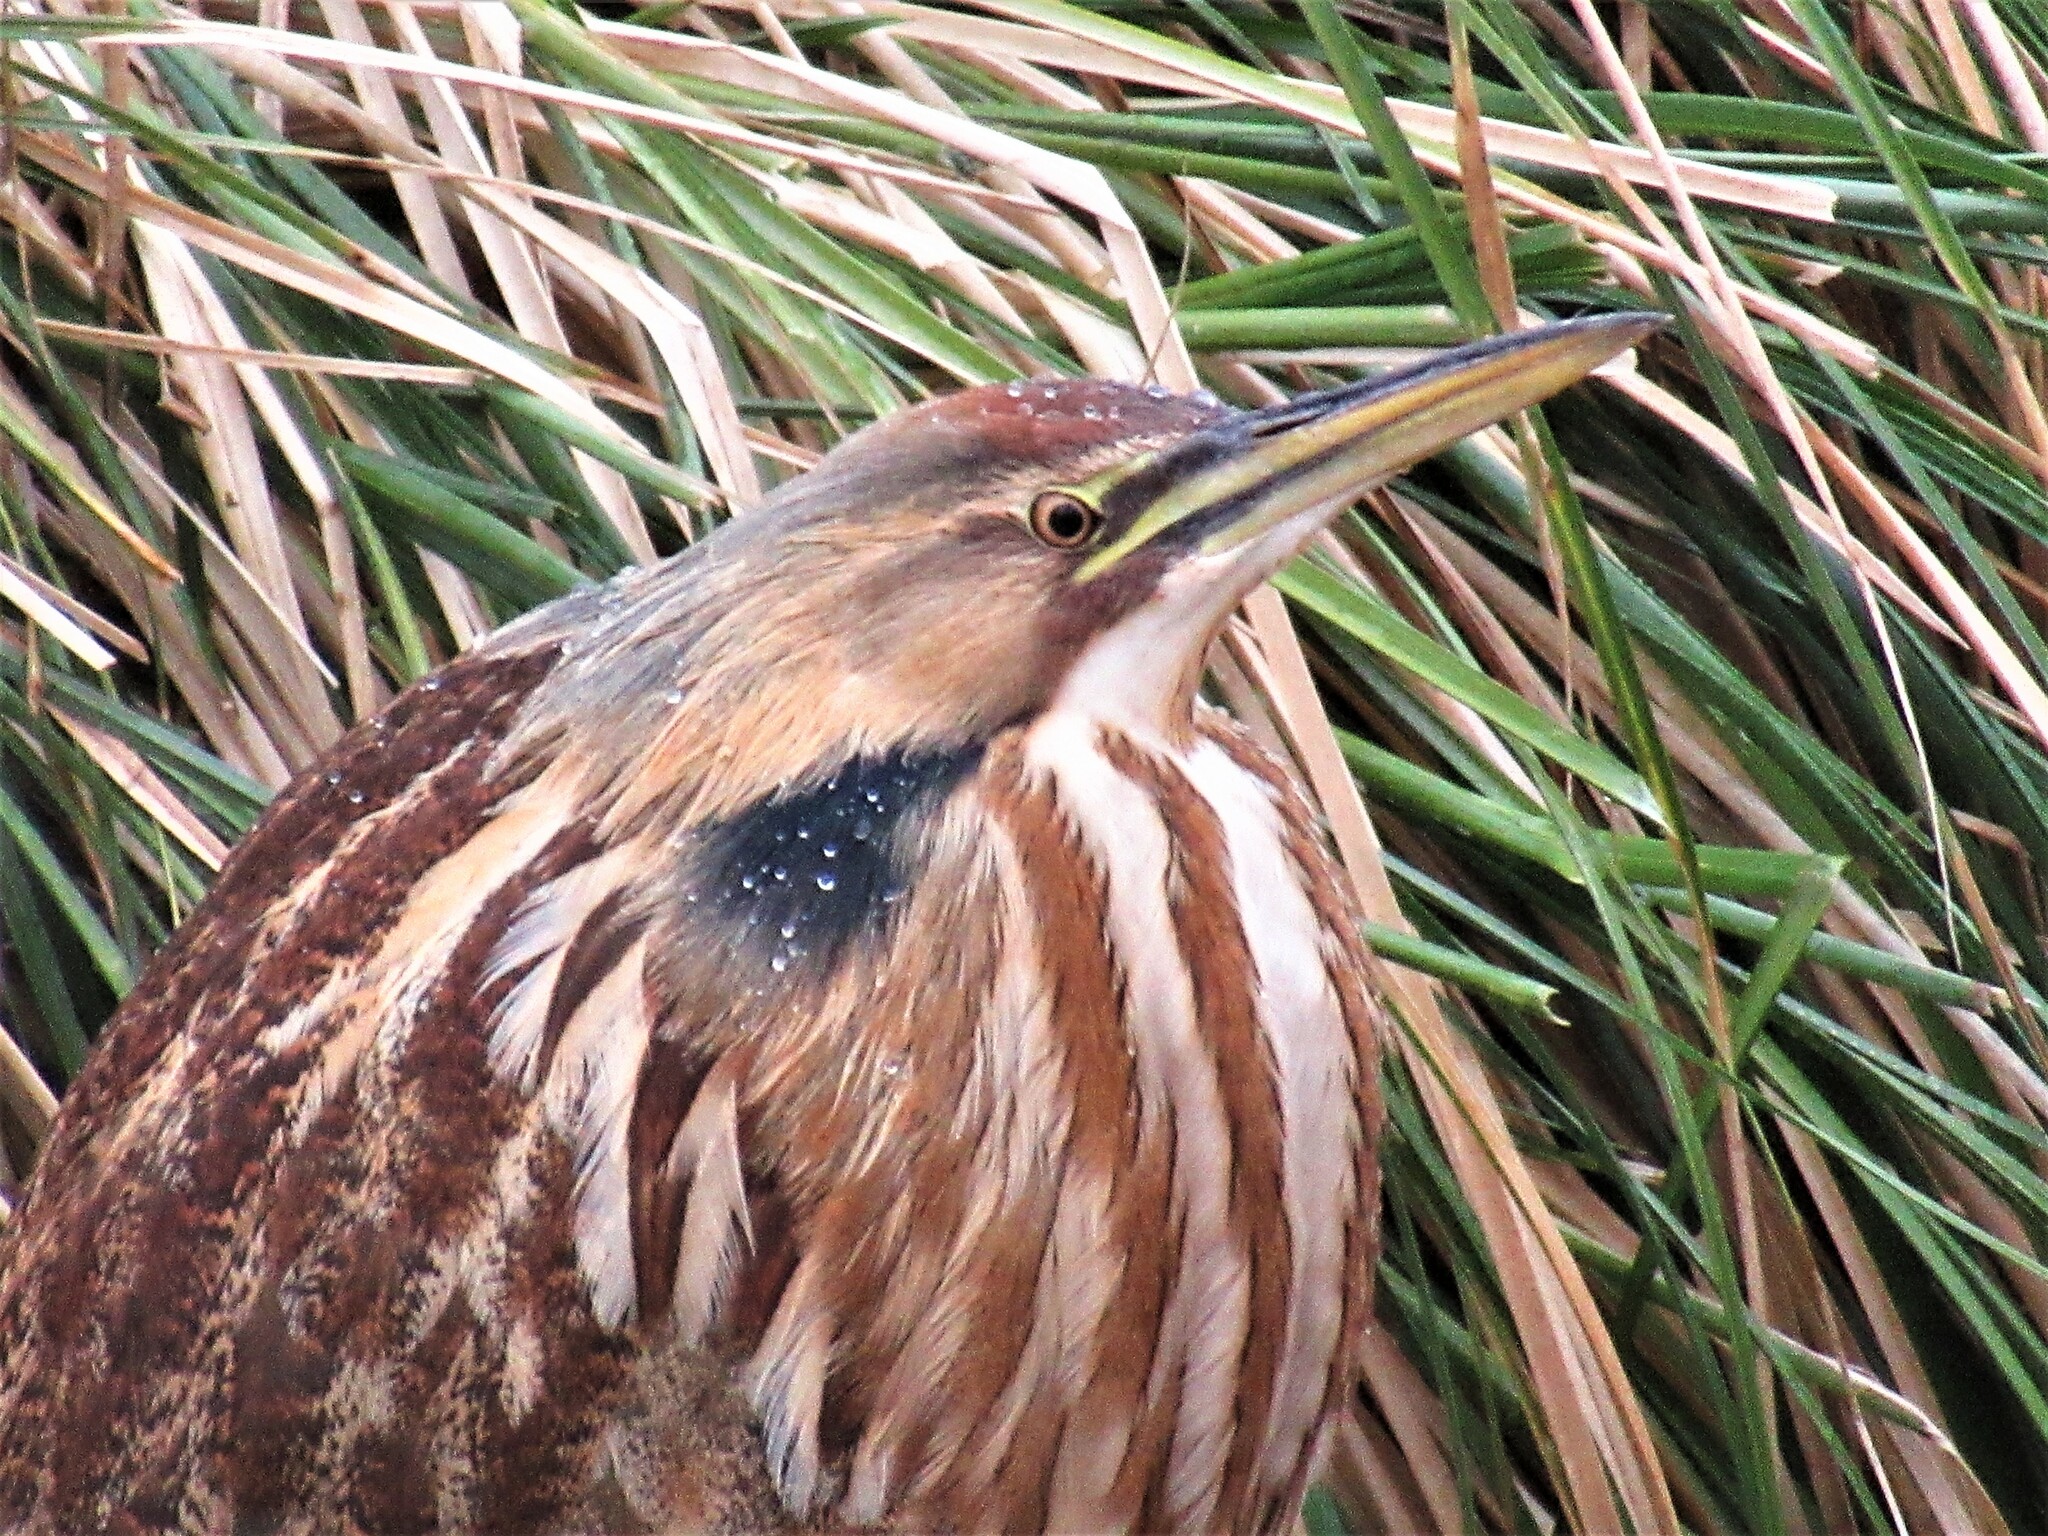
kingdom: Animalia
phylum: Chordata
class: Aves
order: Pelecaniformes
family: Ardeidae
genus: Botaurus
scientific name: Botaurus lentiginosus
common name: American bittern
